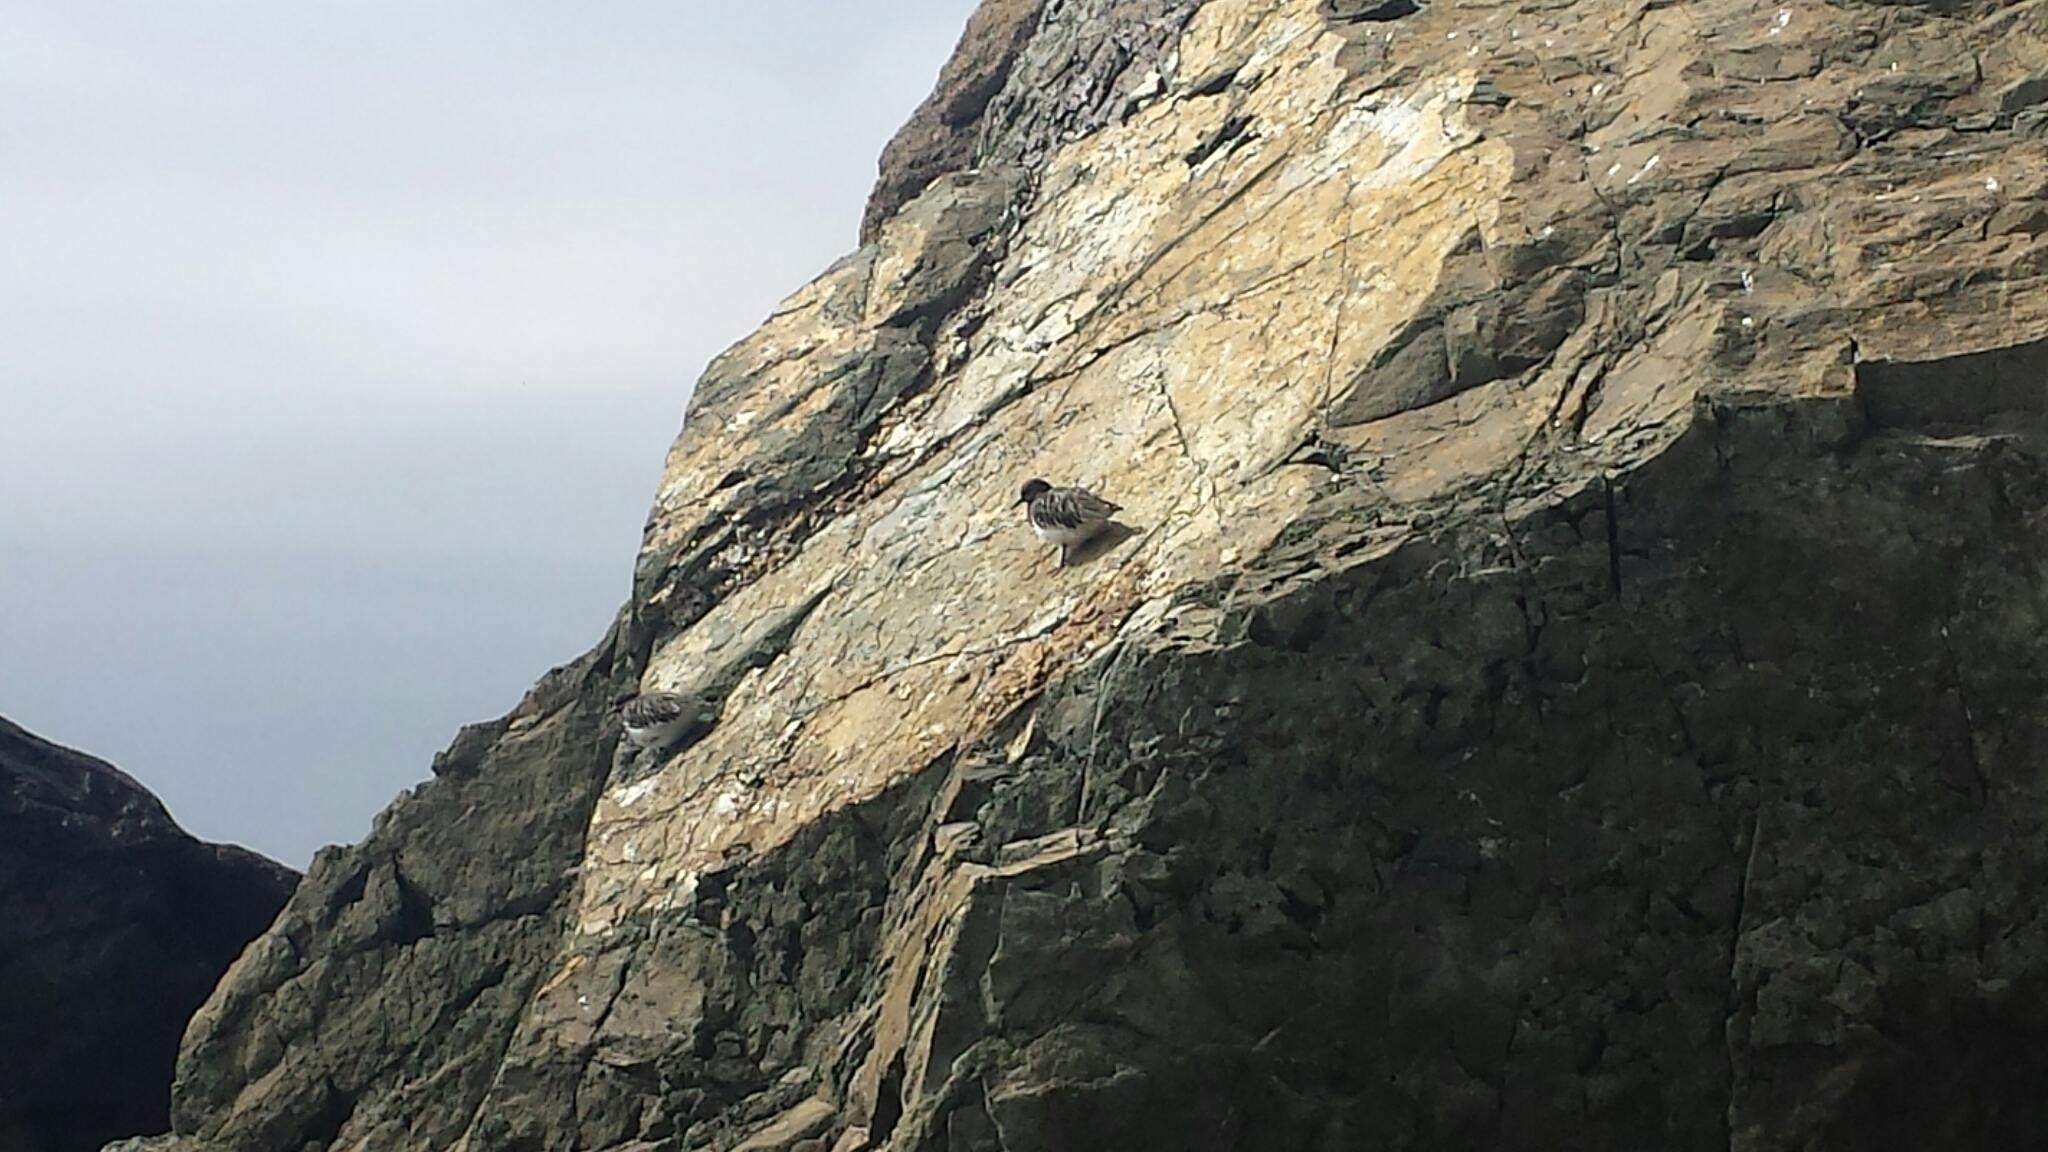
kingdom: Animalia
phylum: Chordata
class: Aves
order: Charadriiformes
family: Scolopacidae
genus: Arenaria
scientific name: Arenaria melanocephala
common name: Black turnstone
